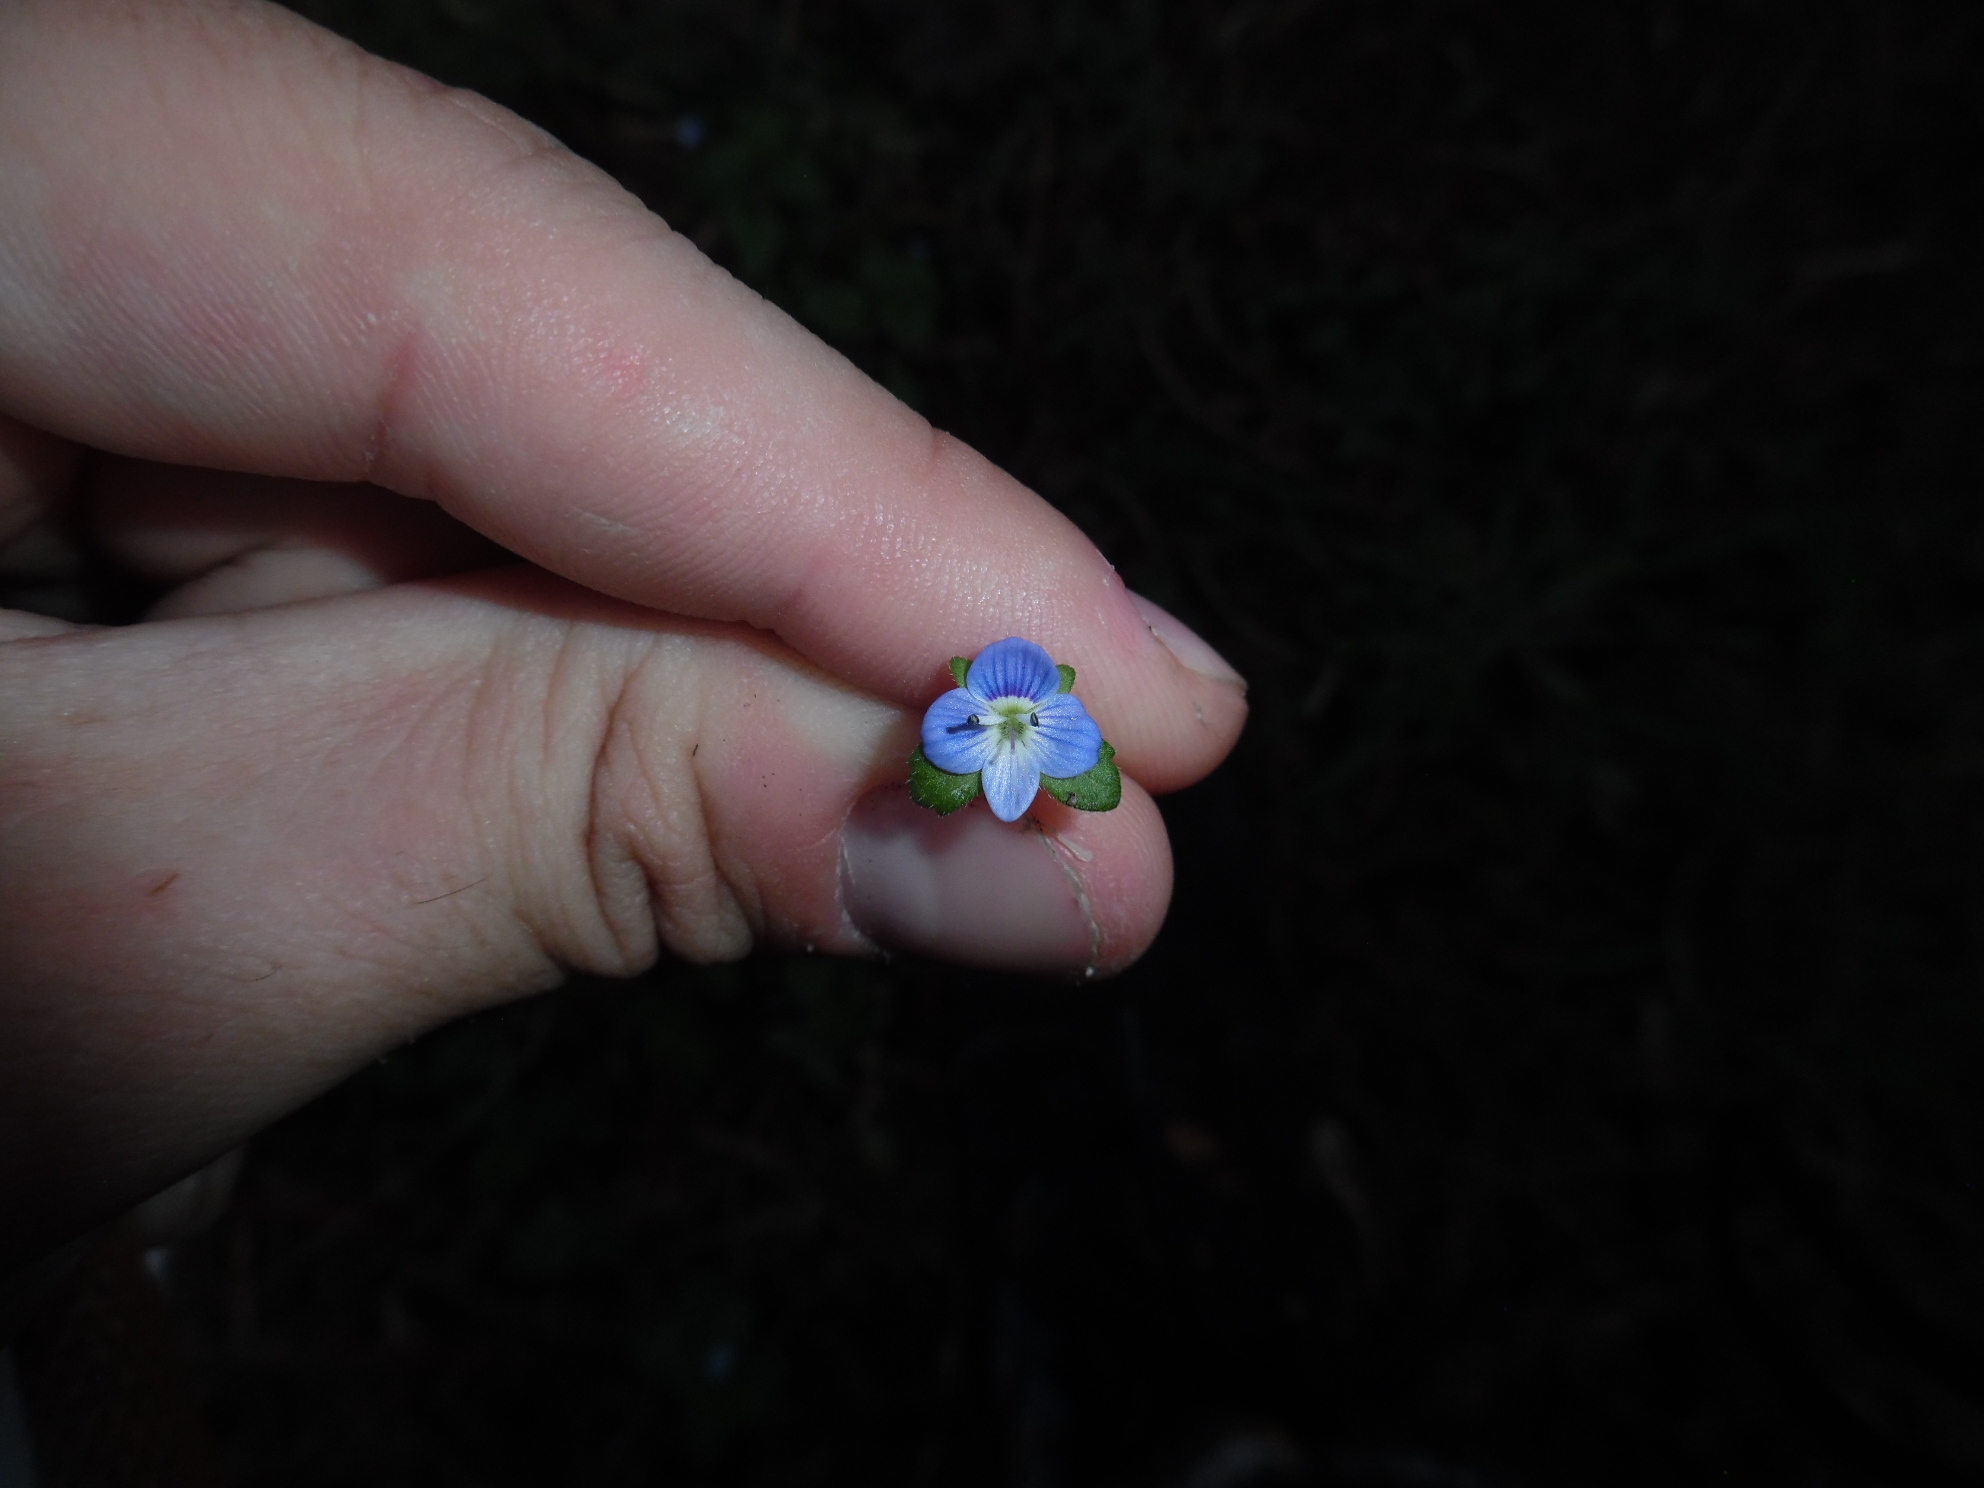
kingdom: Plantae
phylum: Tracheophyta
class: Magnoliopsida
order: Lamiales
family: Plantaginaceae
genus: Veronica
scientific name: Veronica persica
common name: Common field-speedwell
